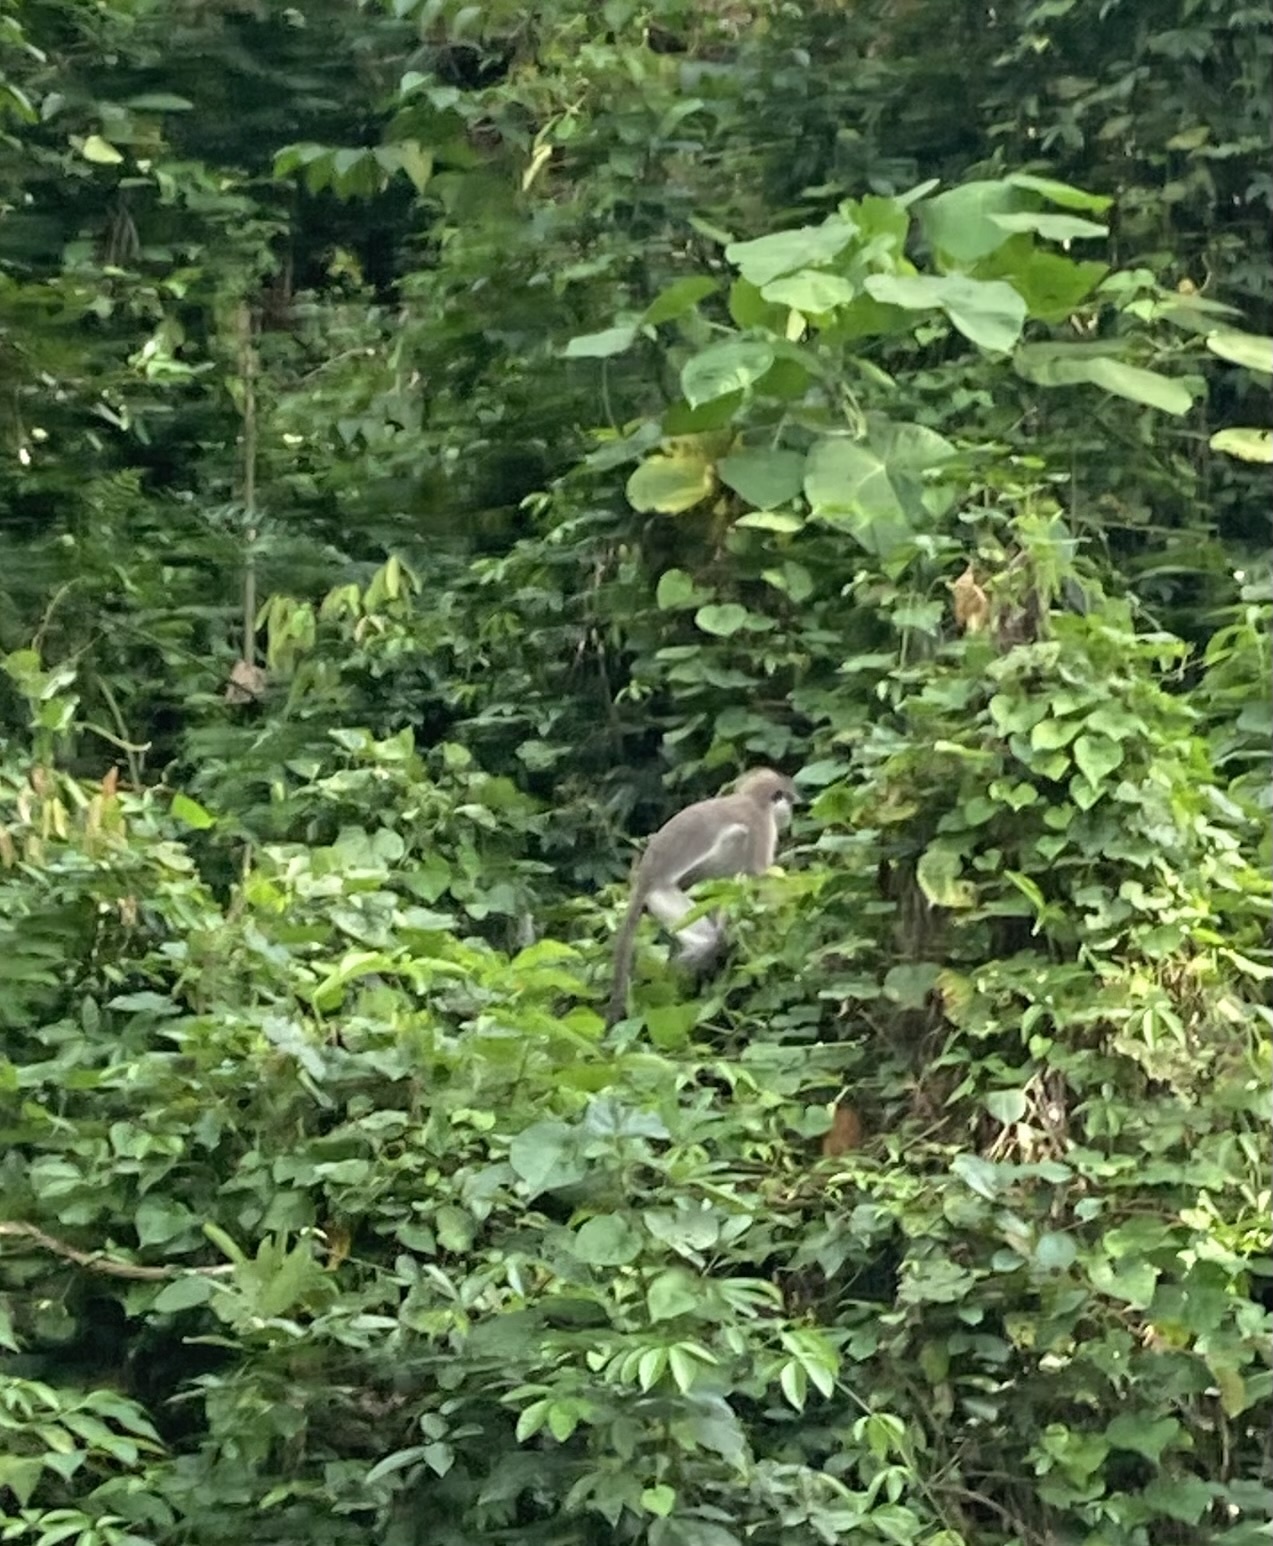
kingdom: Animalia
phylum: Chordata
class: Mammalia
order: Primates
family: Cercopithecidae
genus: Presbytis
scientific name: Presbytis siamensis
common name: White-thighed surili
